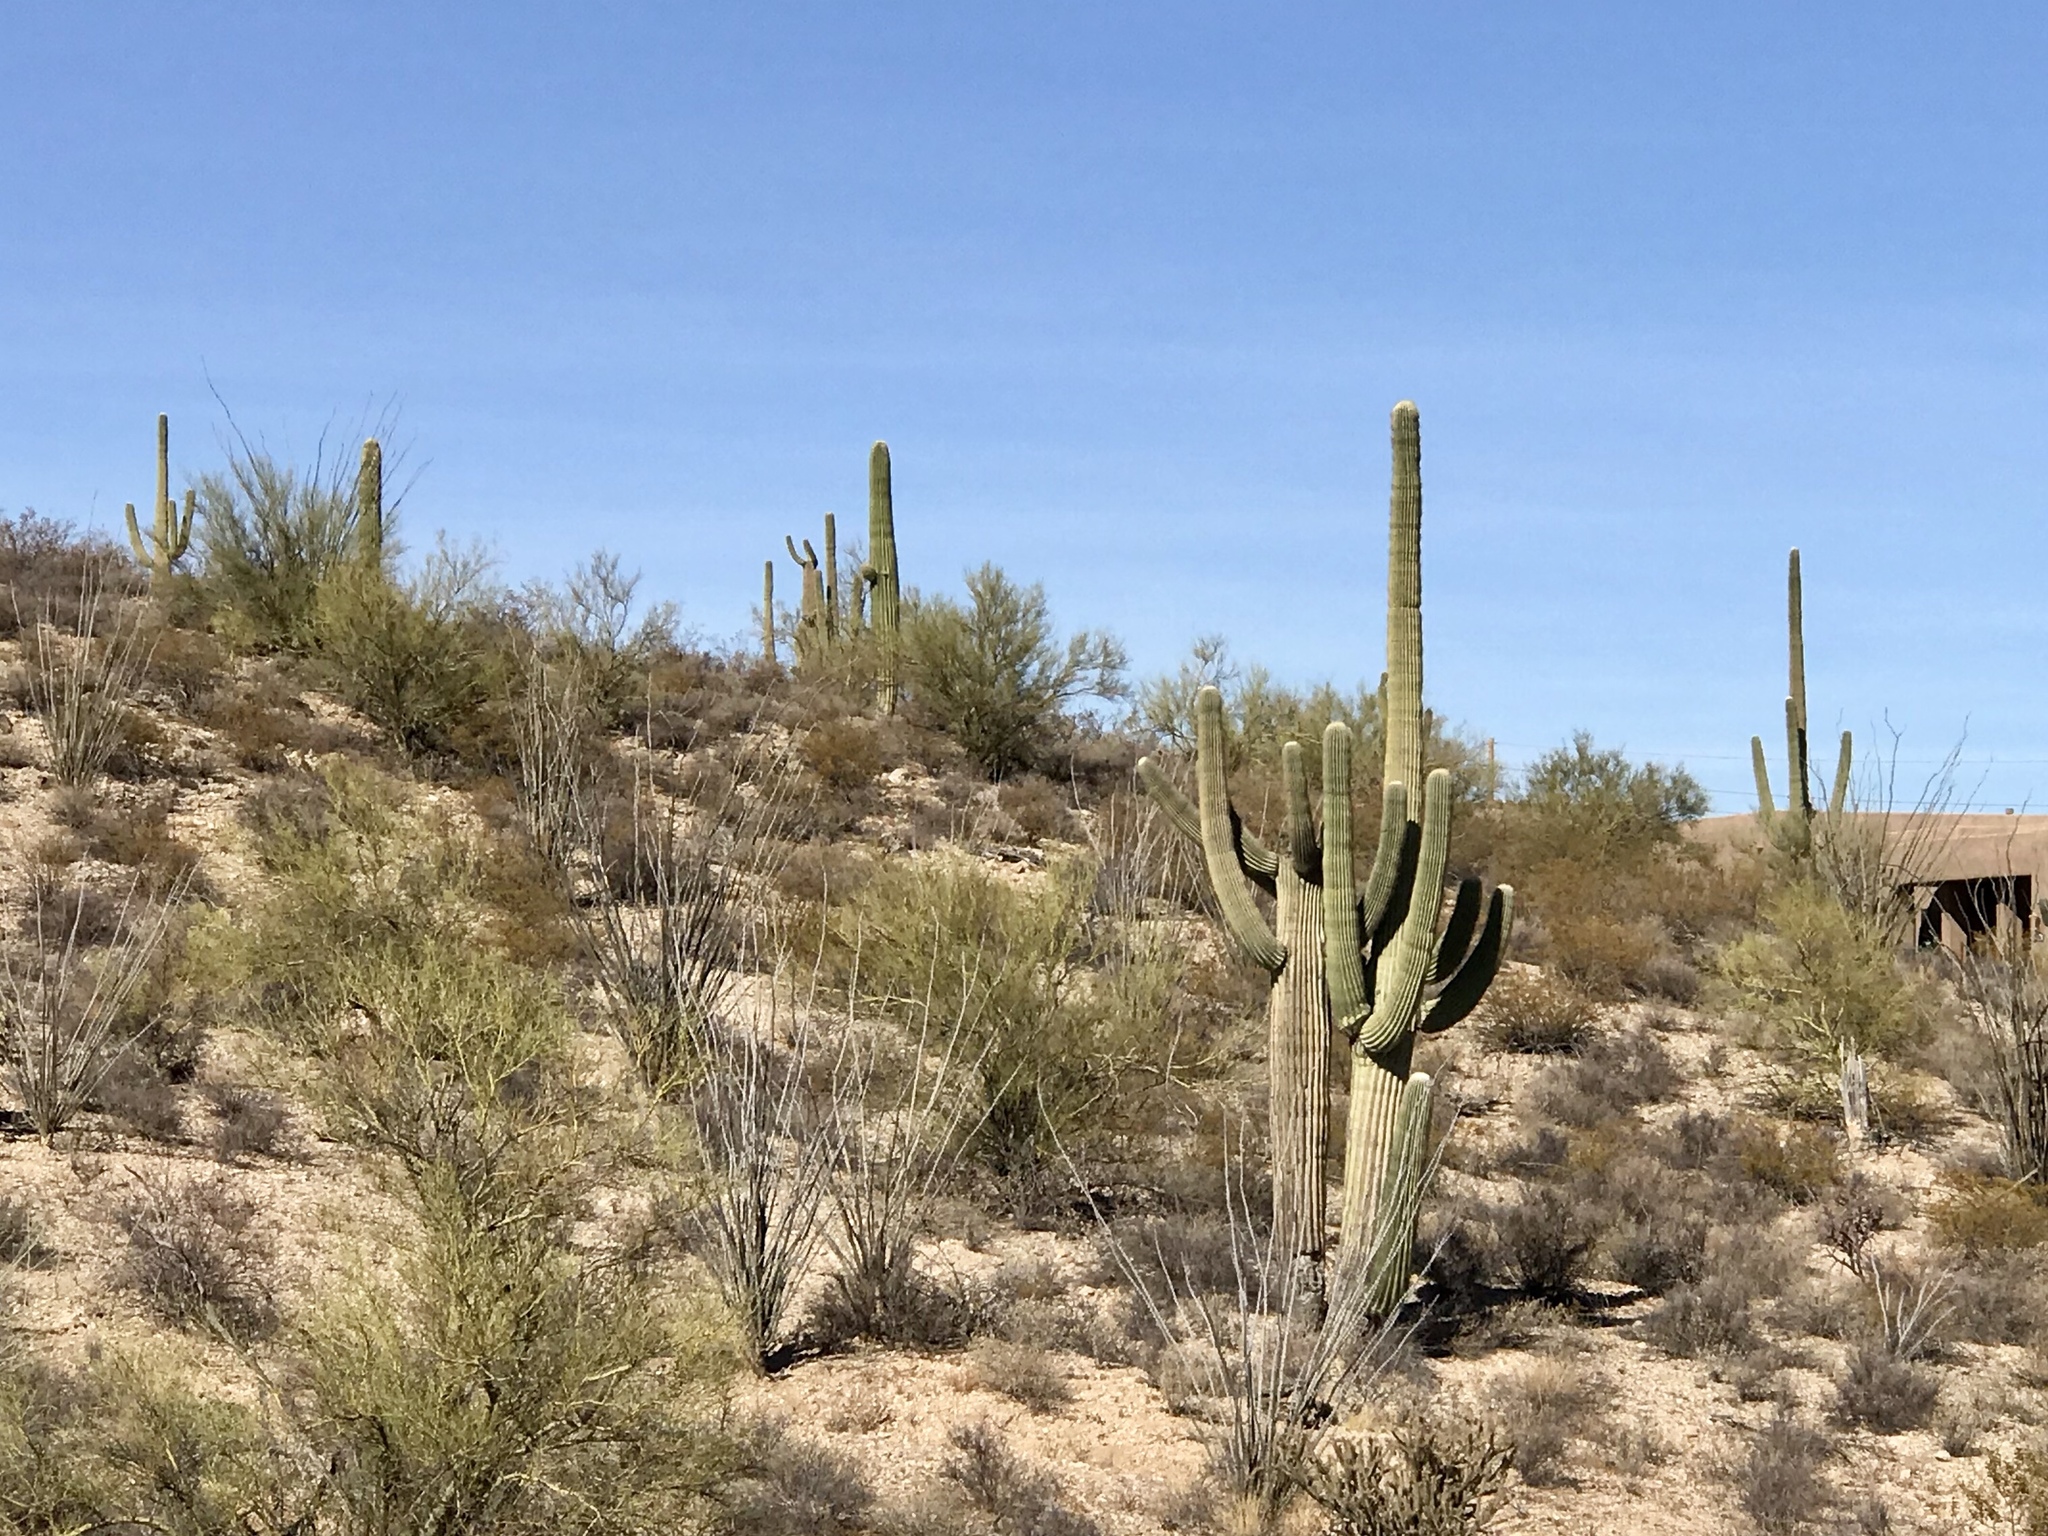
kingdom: Plantae
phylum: Tracheophyta
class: Magnoliopsida
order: Caryophyllales
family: Cactaceae
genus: Carnegiea
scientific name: Carnegiea gigantea
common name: Saguaro
